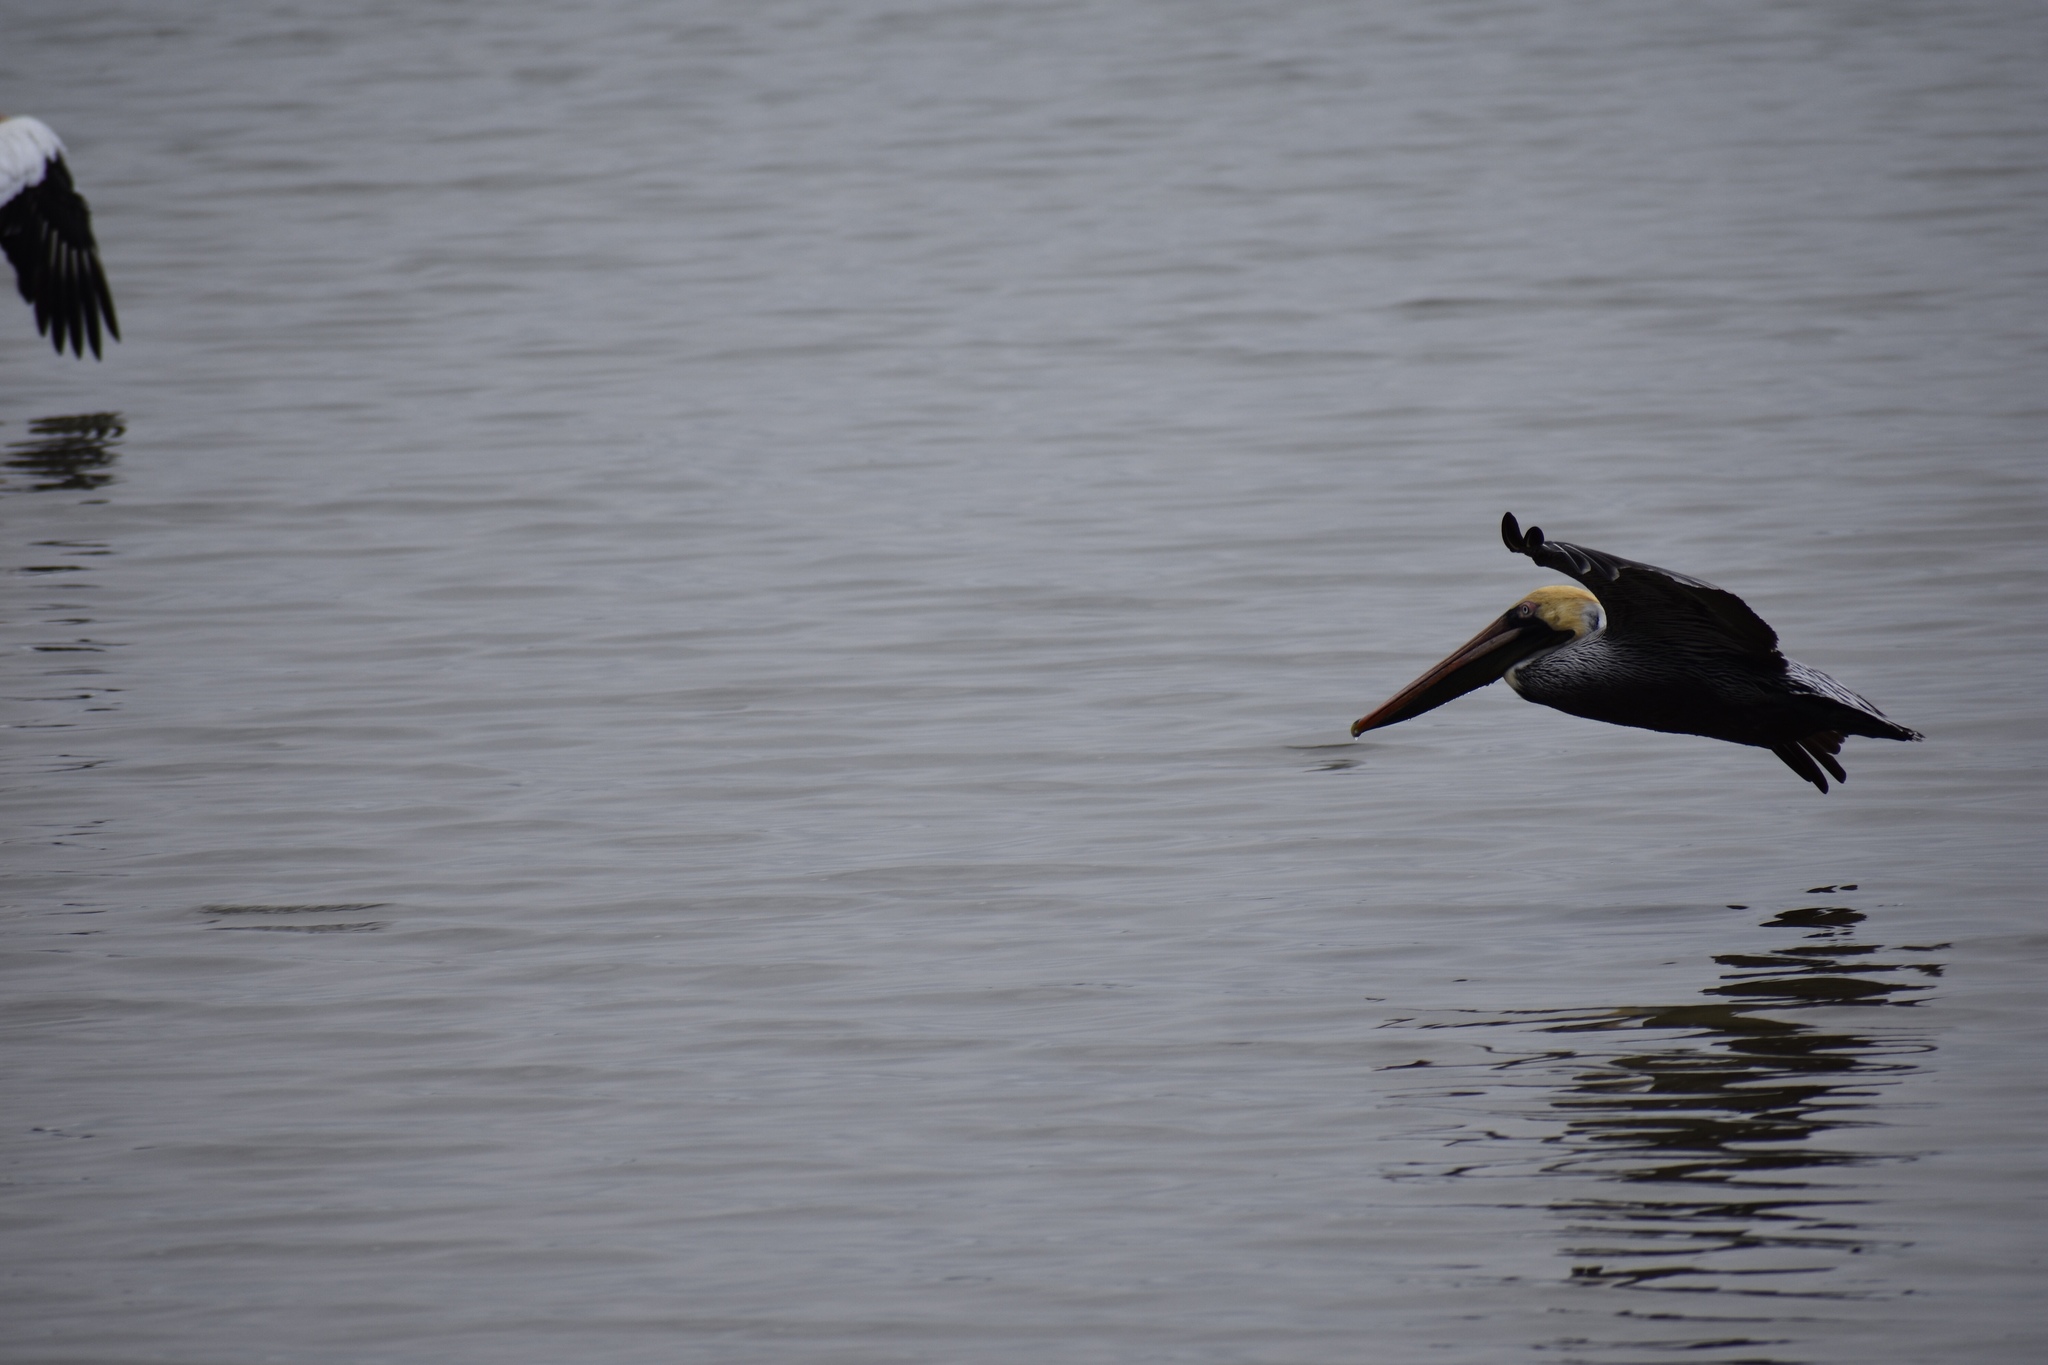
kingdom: Animalia
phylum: Chordata
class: Aves
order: Pelecaniformes
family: Pelecanidae
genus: Pelecanus
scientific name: Pelecanus occidentalis
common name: Brown pelican
